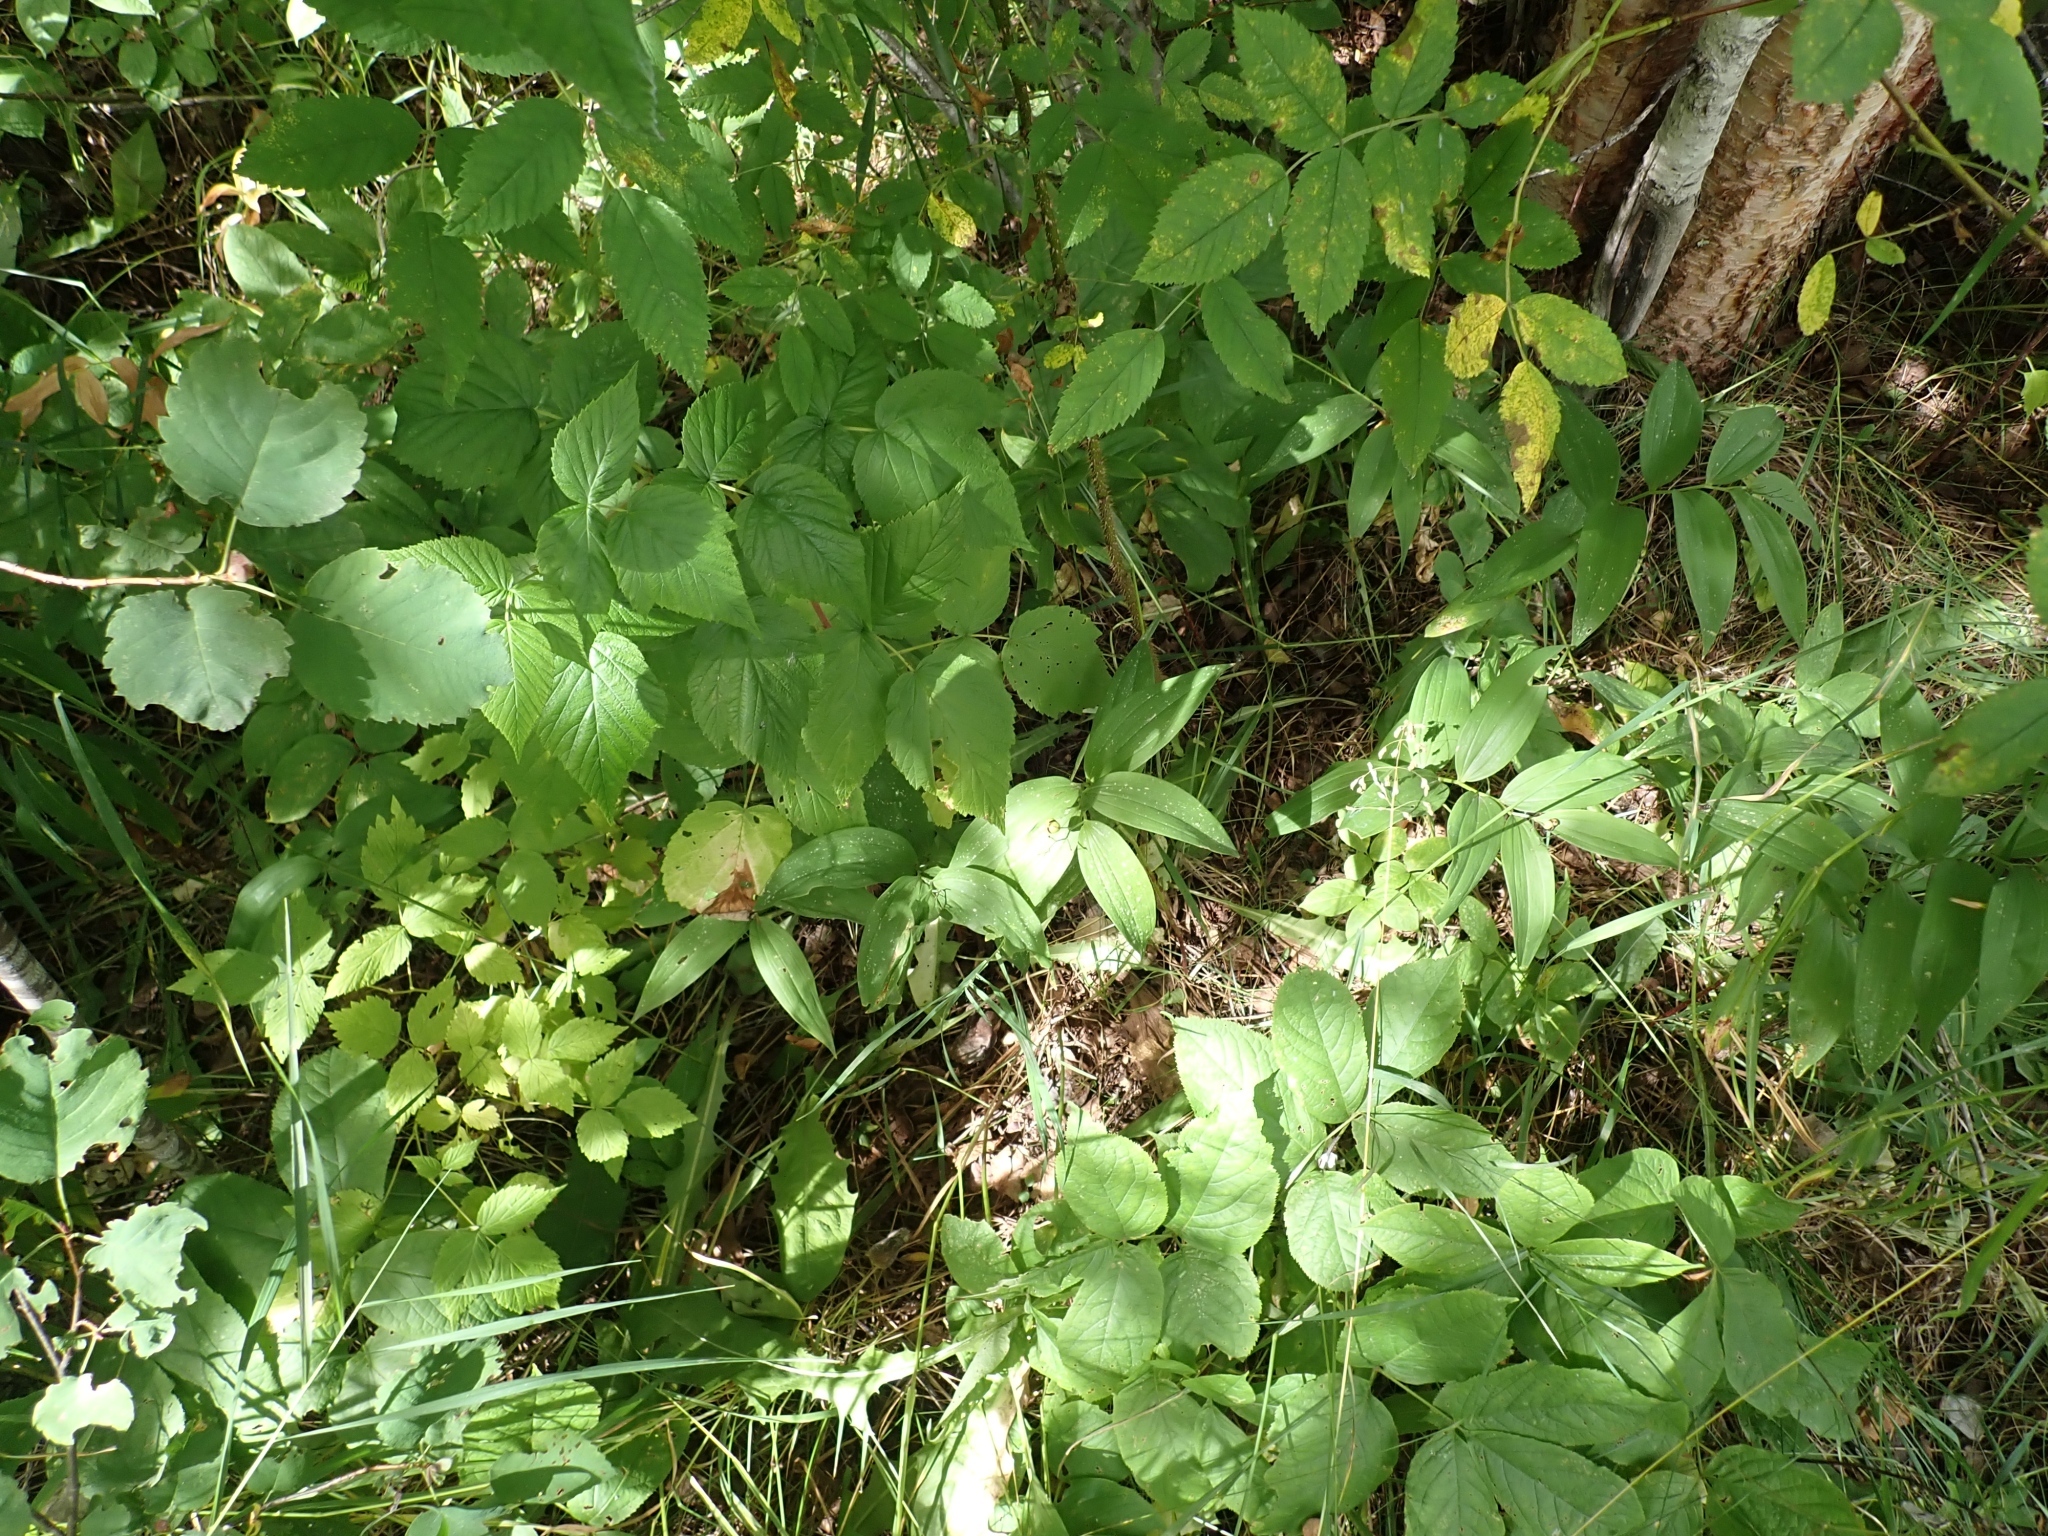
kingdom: Plantae
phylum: Tracheophyta
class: Liliopsida
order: Asparagales
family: Asparagaceae
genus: Maianthemum
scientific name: Maianthemum stellatum
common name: Little false solomon's seal
